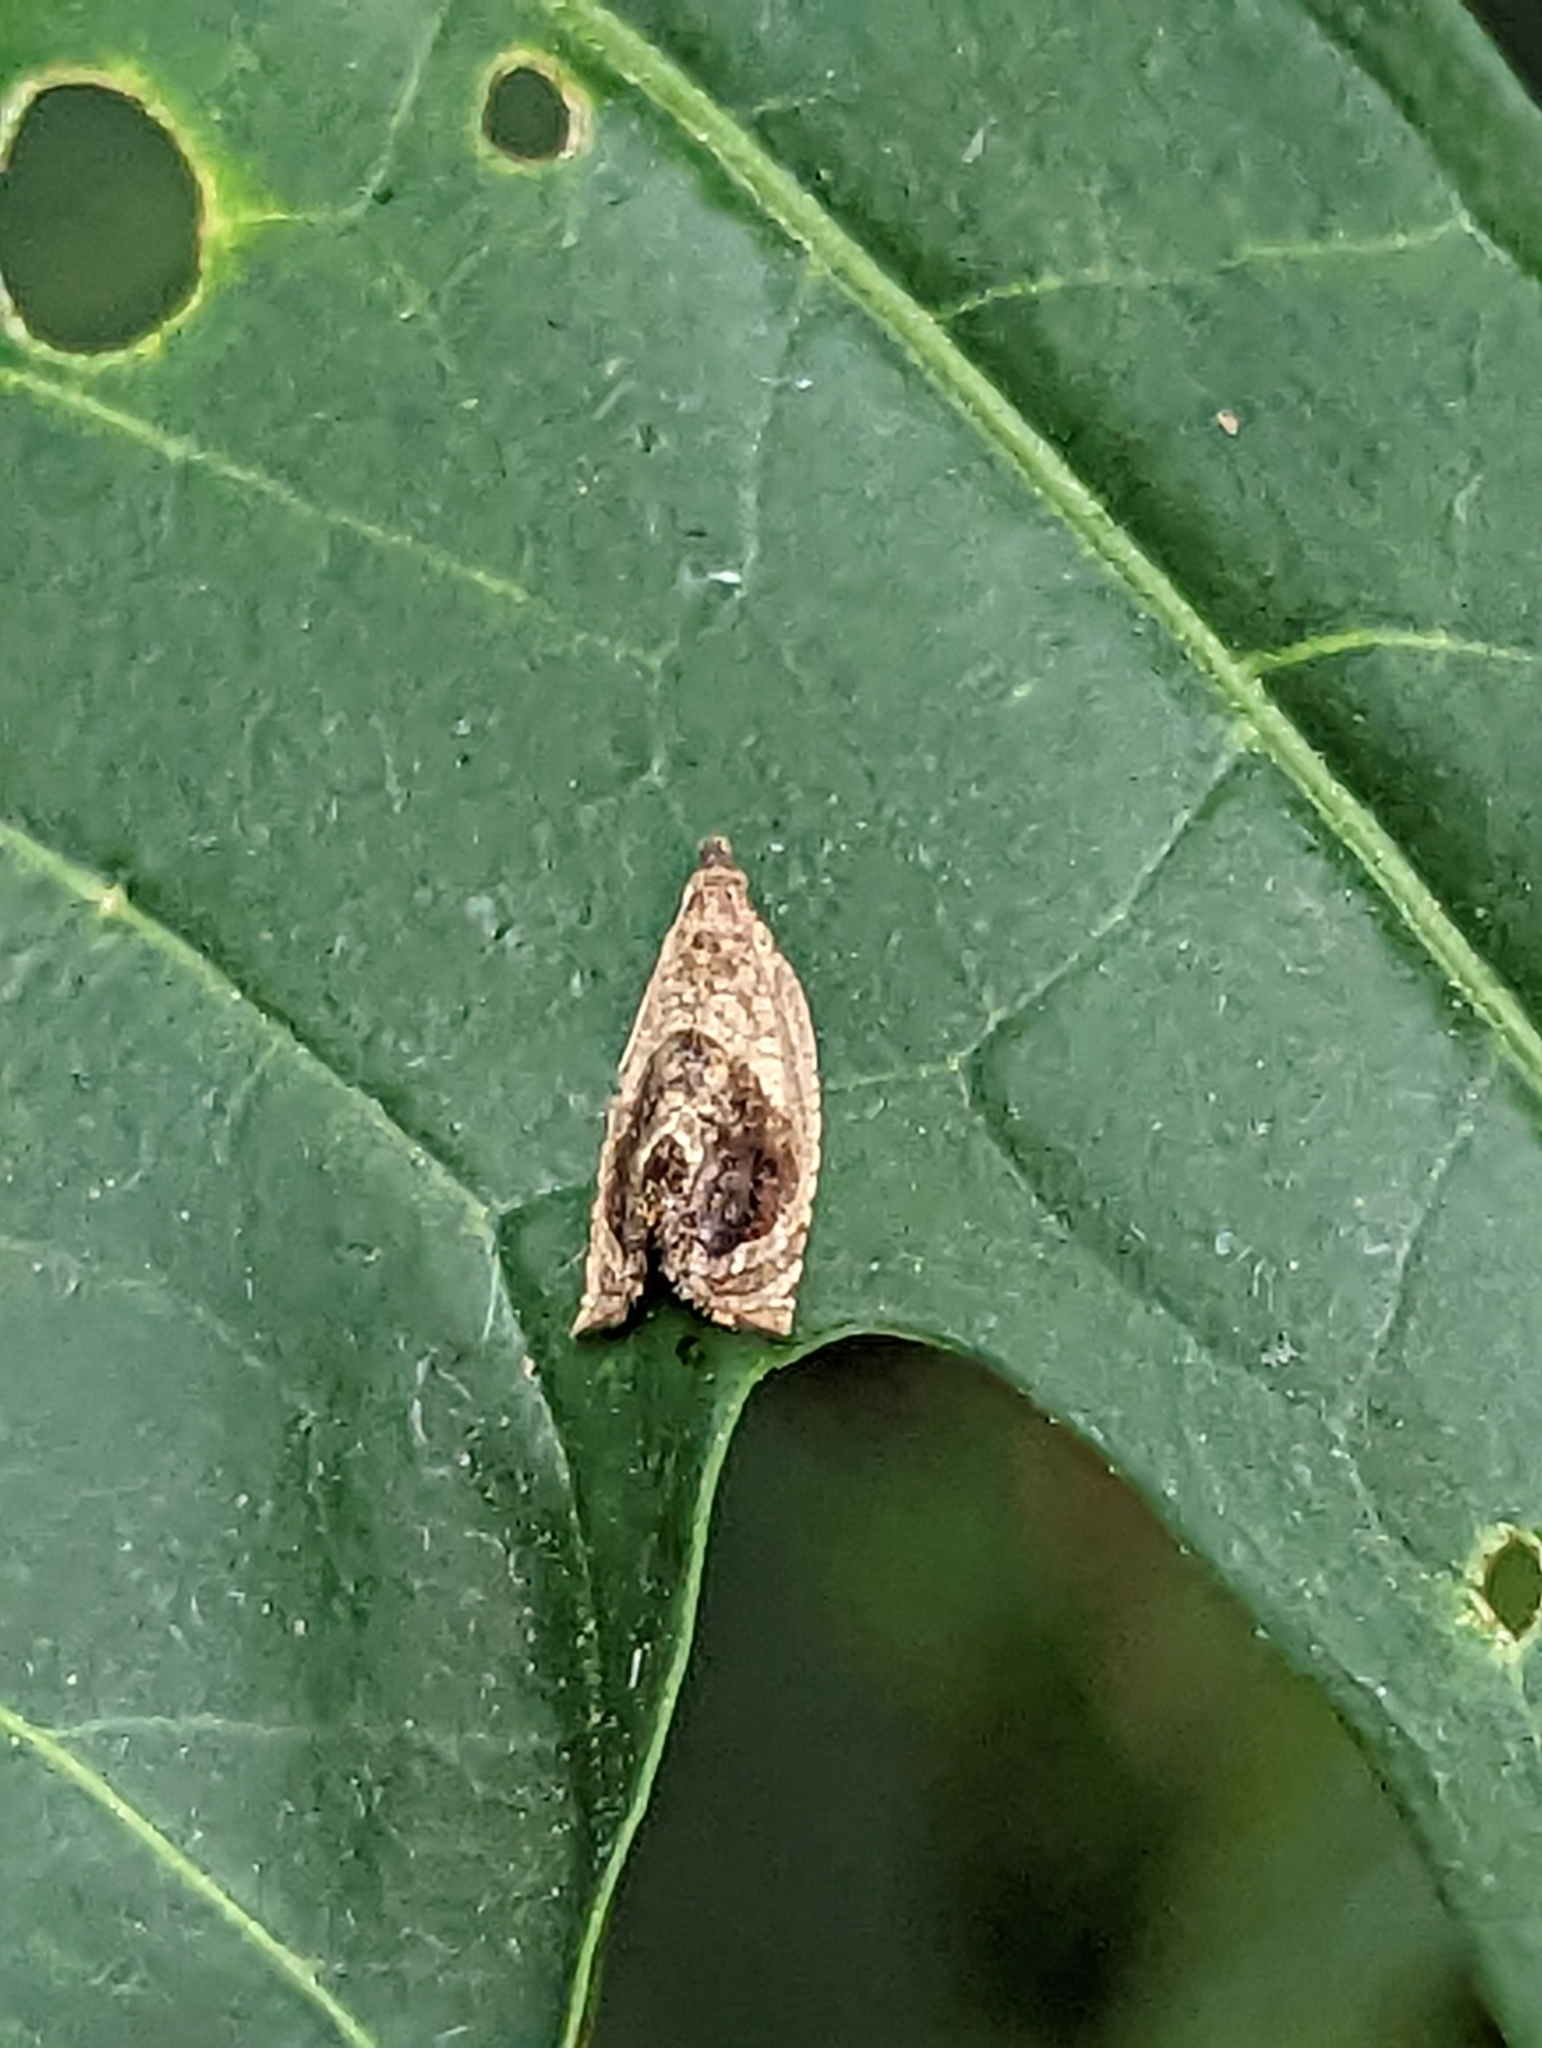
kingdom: Animalia
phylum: Arthropoda
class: Insecta
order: Lepidoptera
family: Tortricidae
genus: Acroceuthes
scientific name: Acroceuthes metaxanthana
